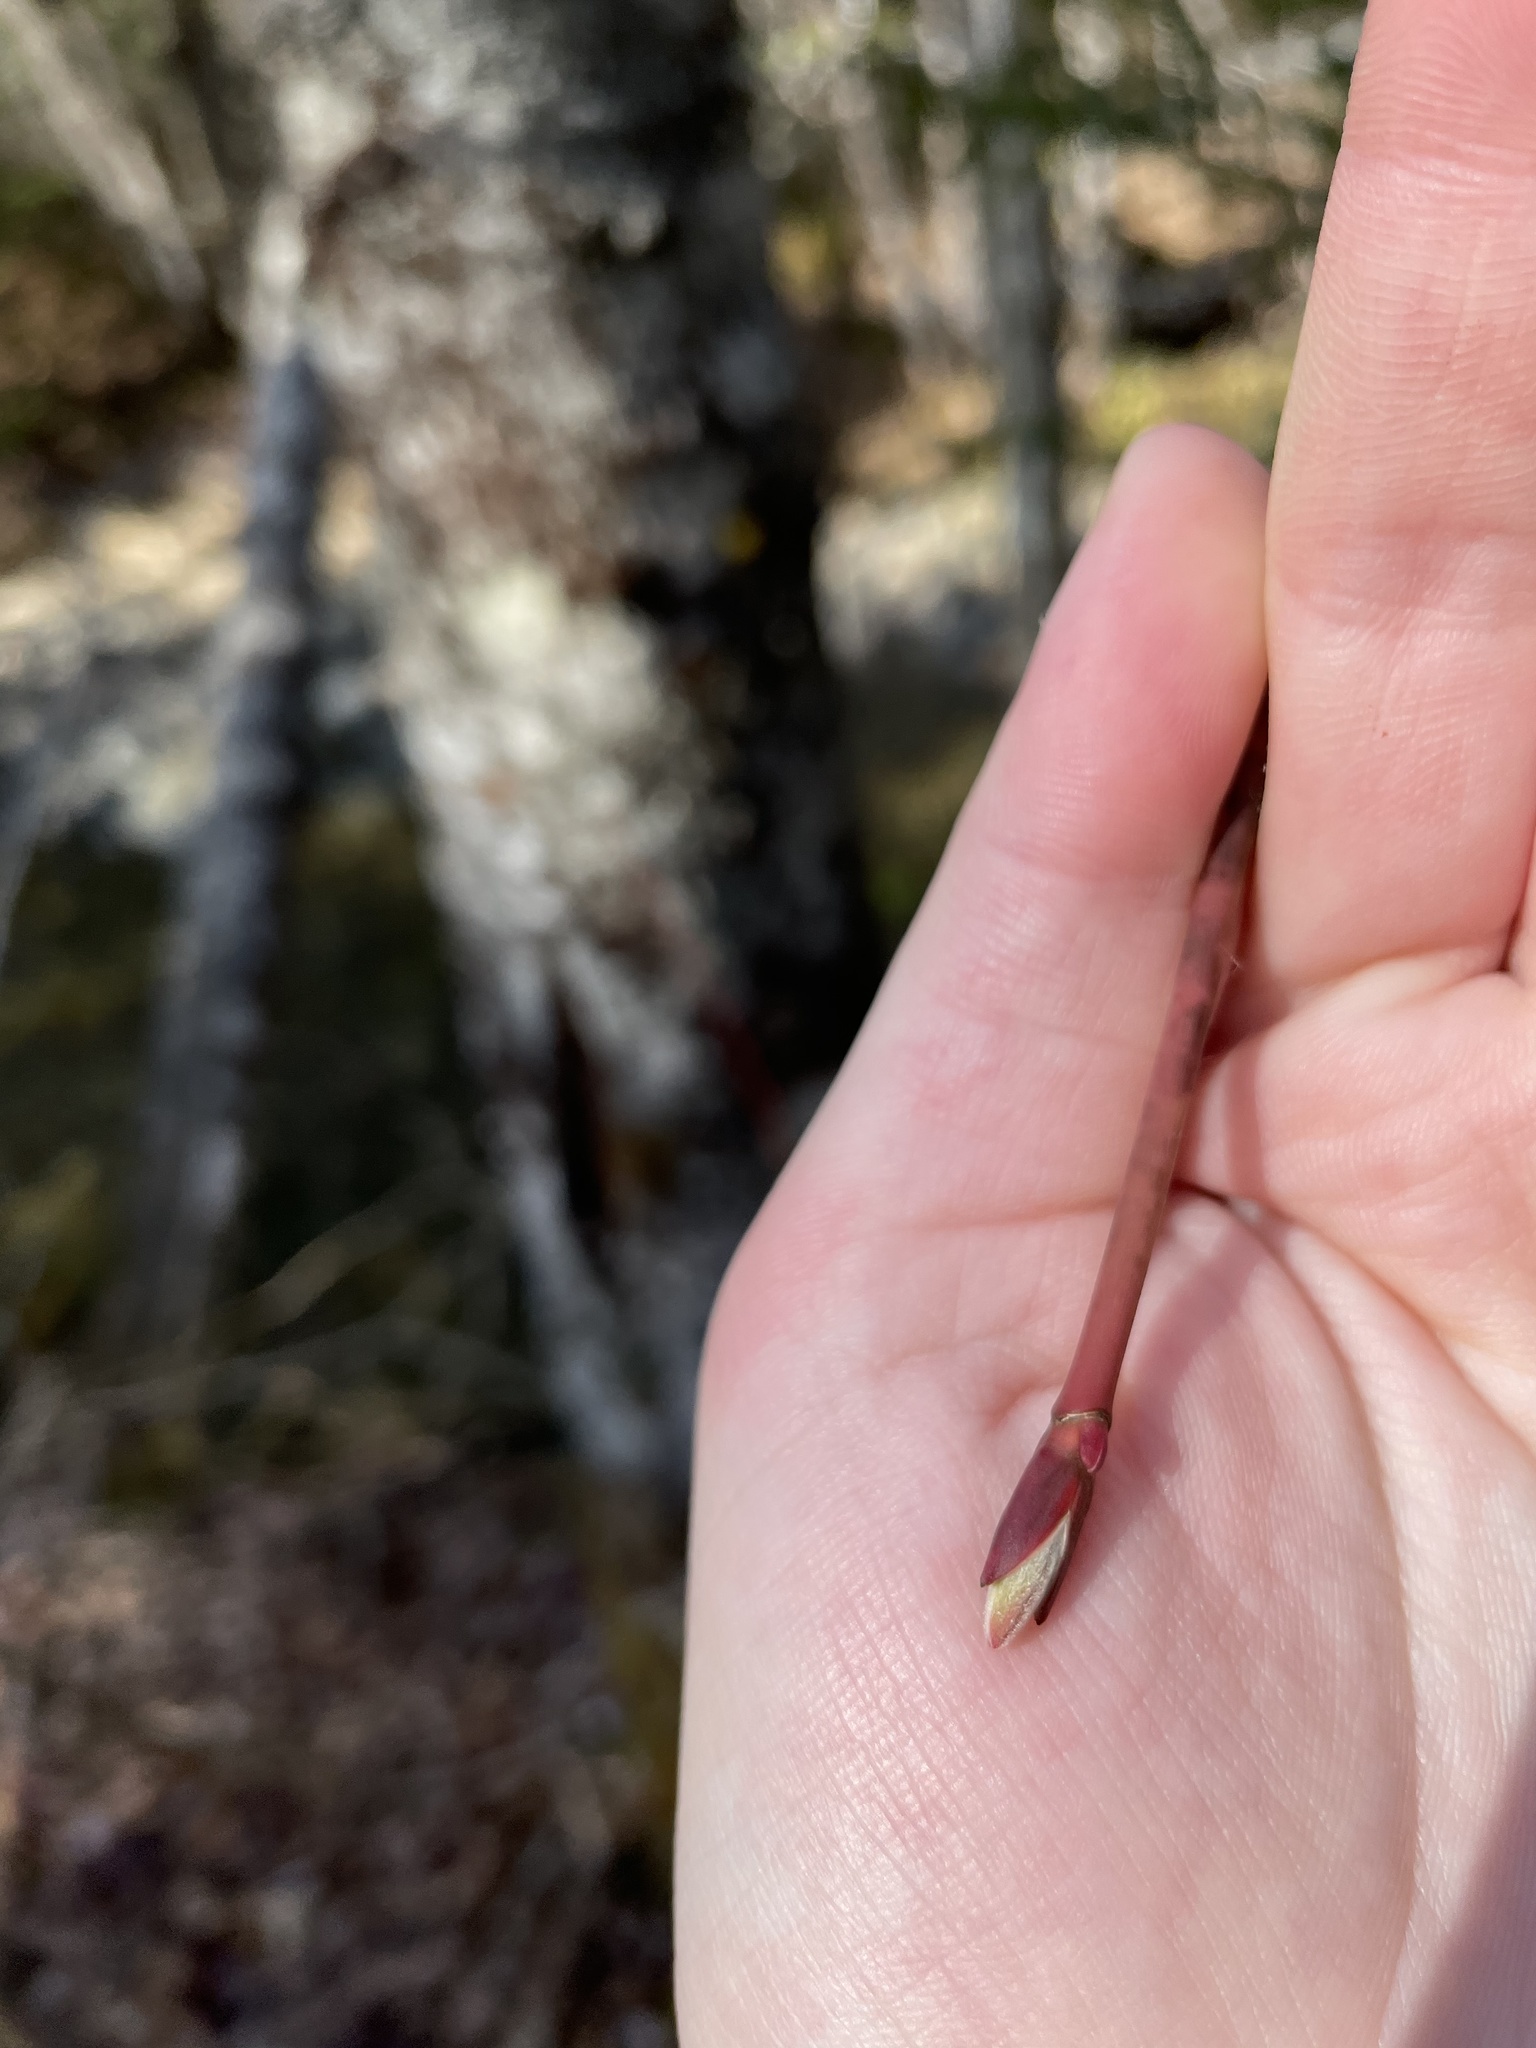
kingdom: Plantae
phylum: Tracheophyta
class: Magnoliopsida
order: Sapindales
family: Sapindaceae
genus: Acer
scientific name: Acer pensylvanicum
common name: Moosewood
